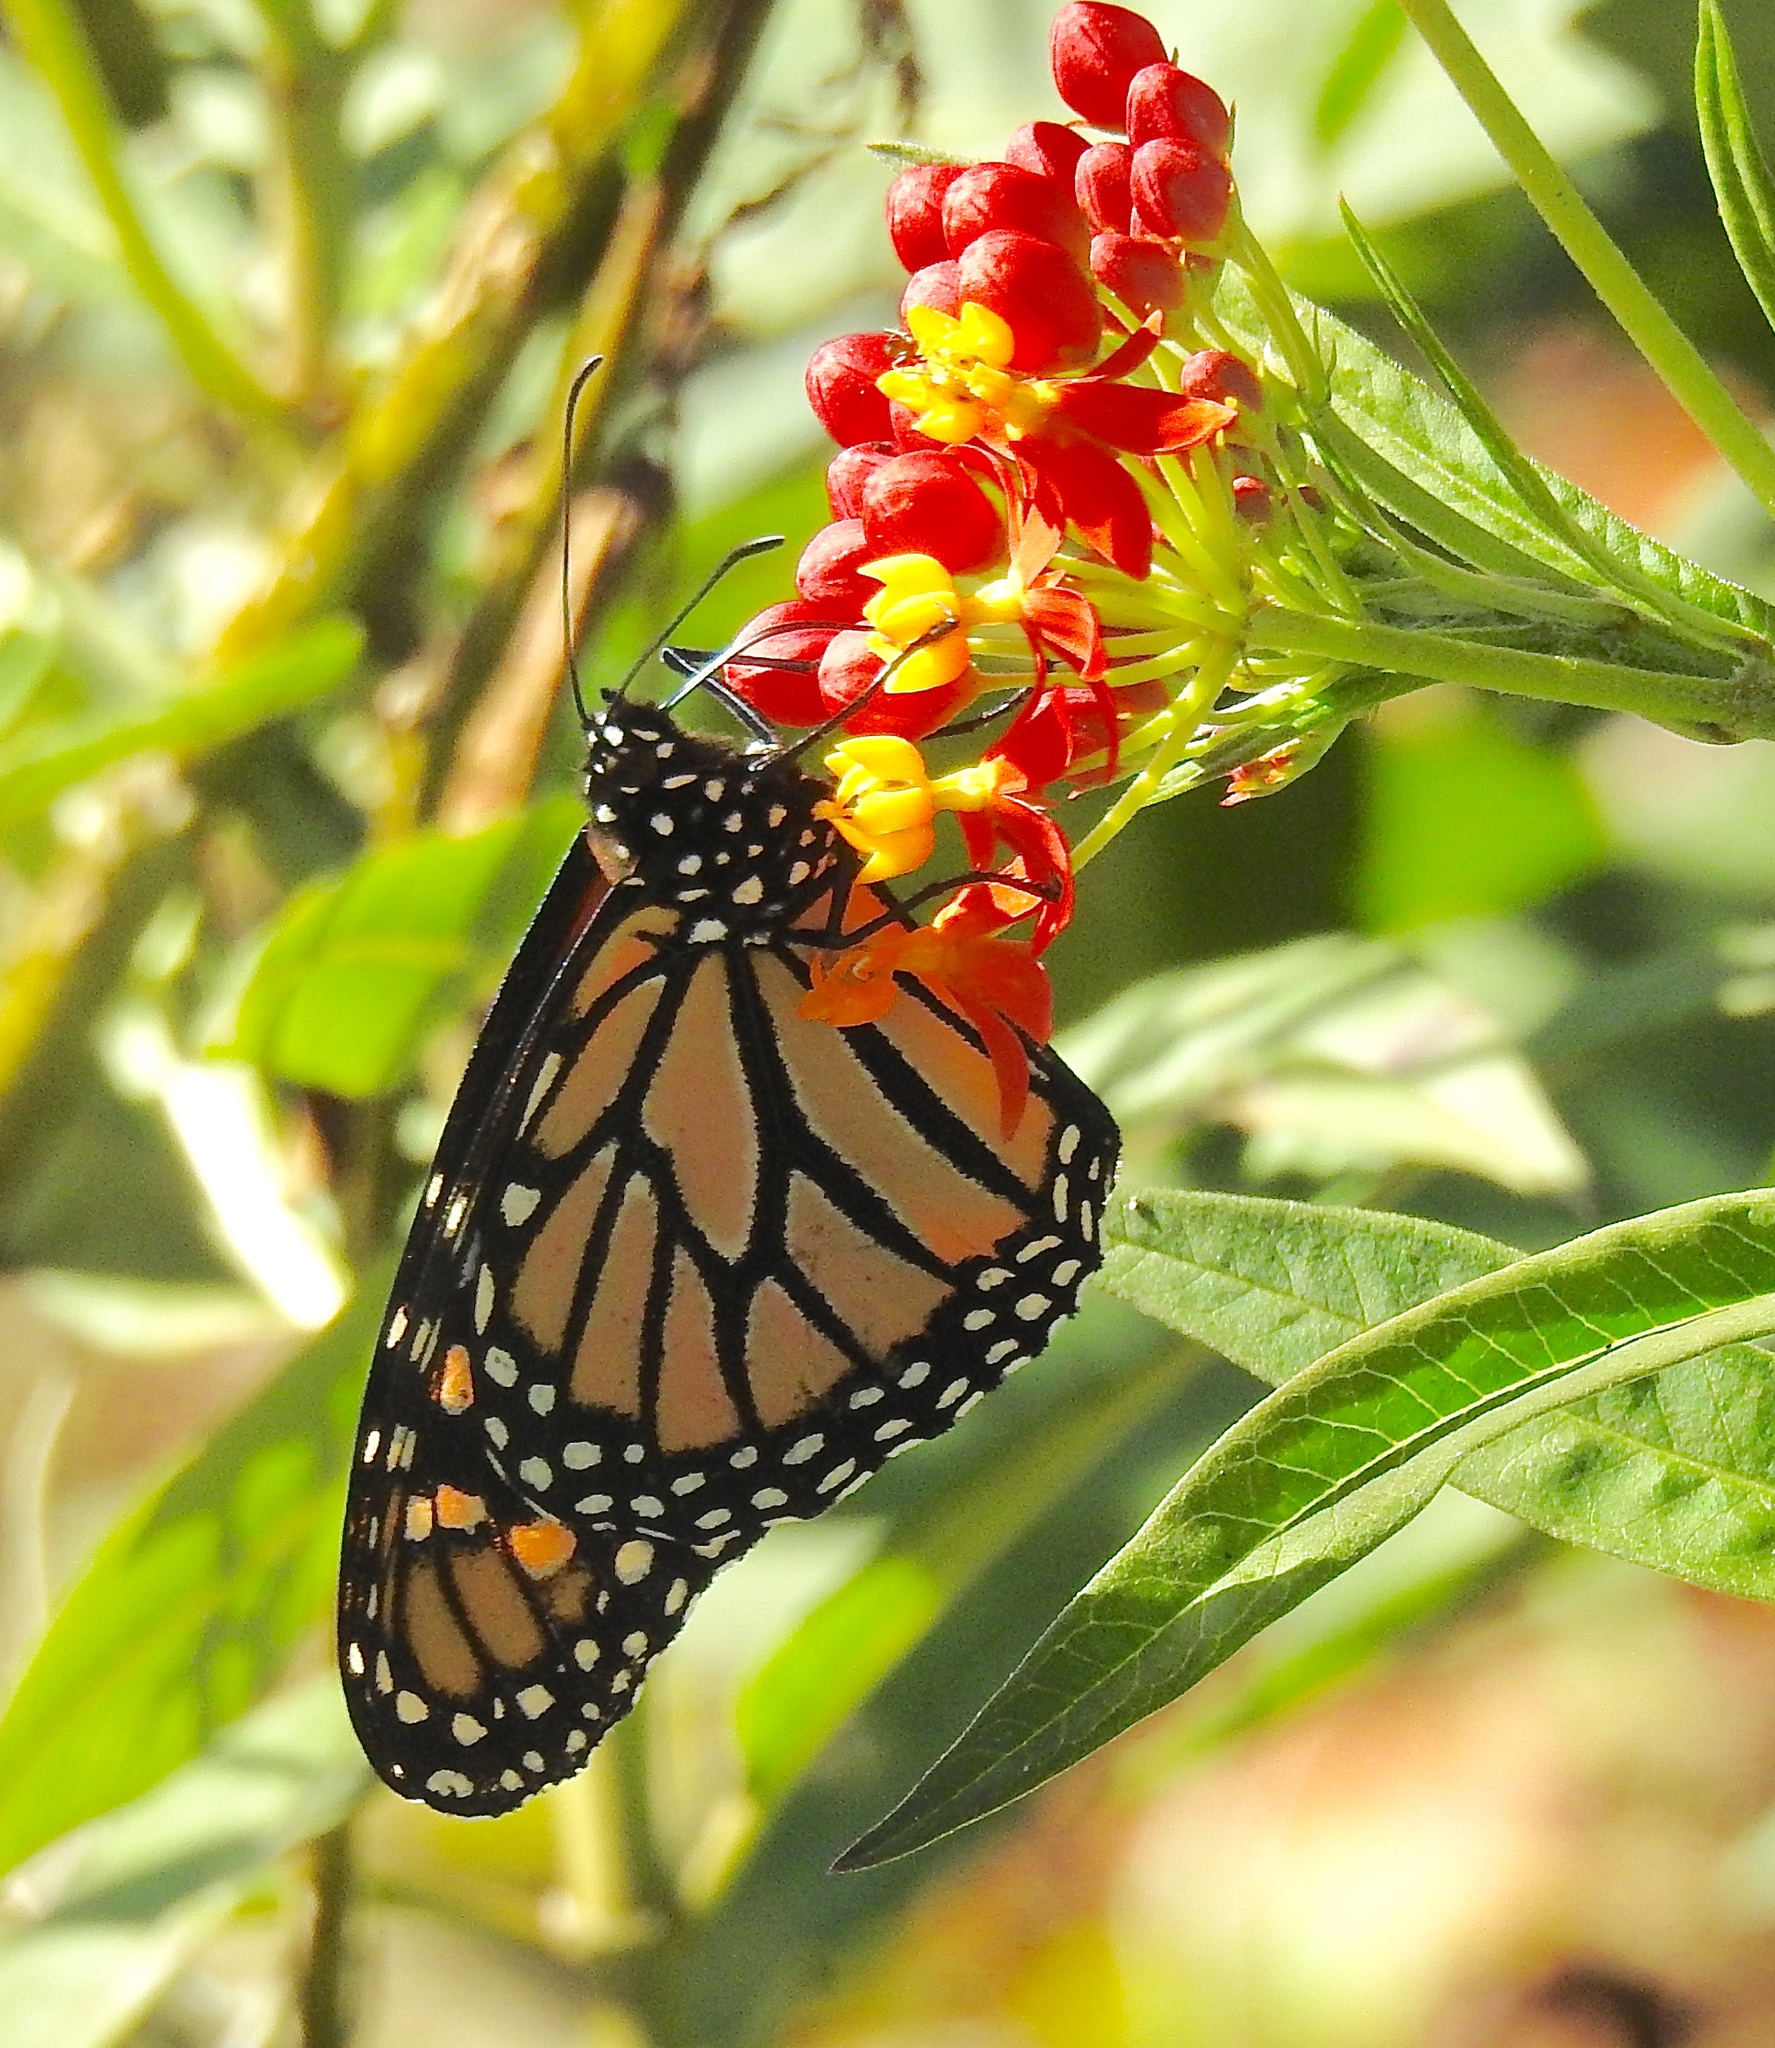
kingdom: Animalia
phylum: Arthropoda
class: Insecta
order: Lepidoptera
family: Nymphalidae
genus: Danaus
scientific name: Danaus plexippus
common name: Monarch
